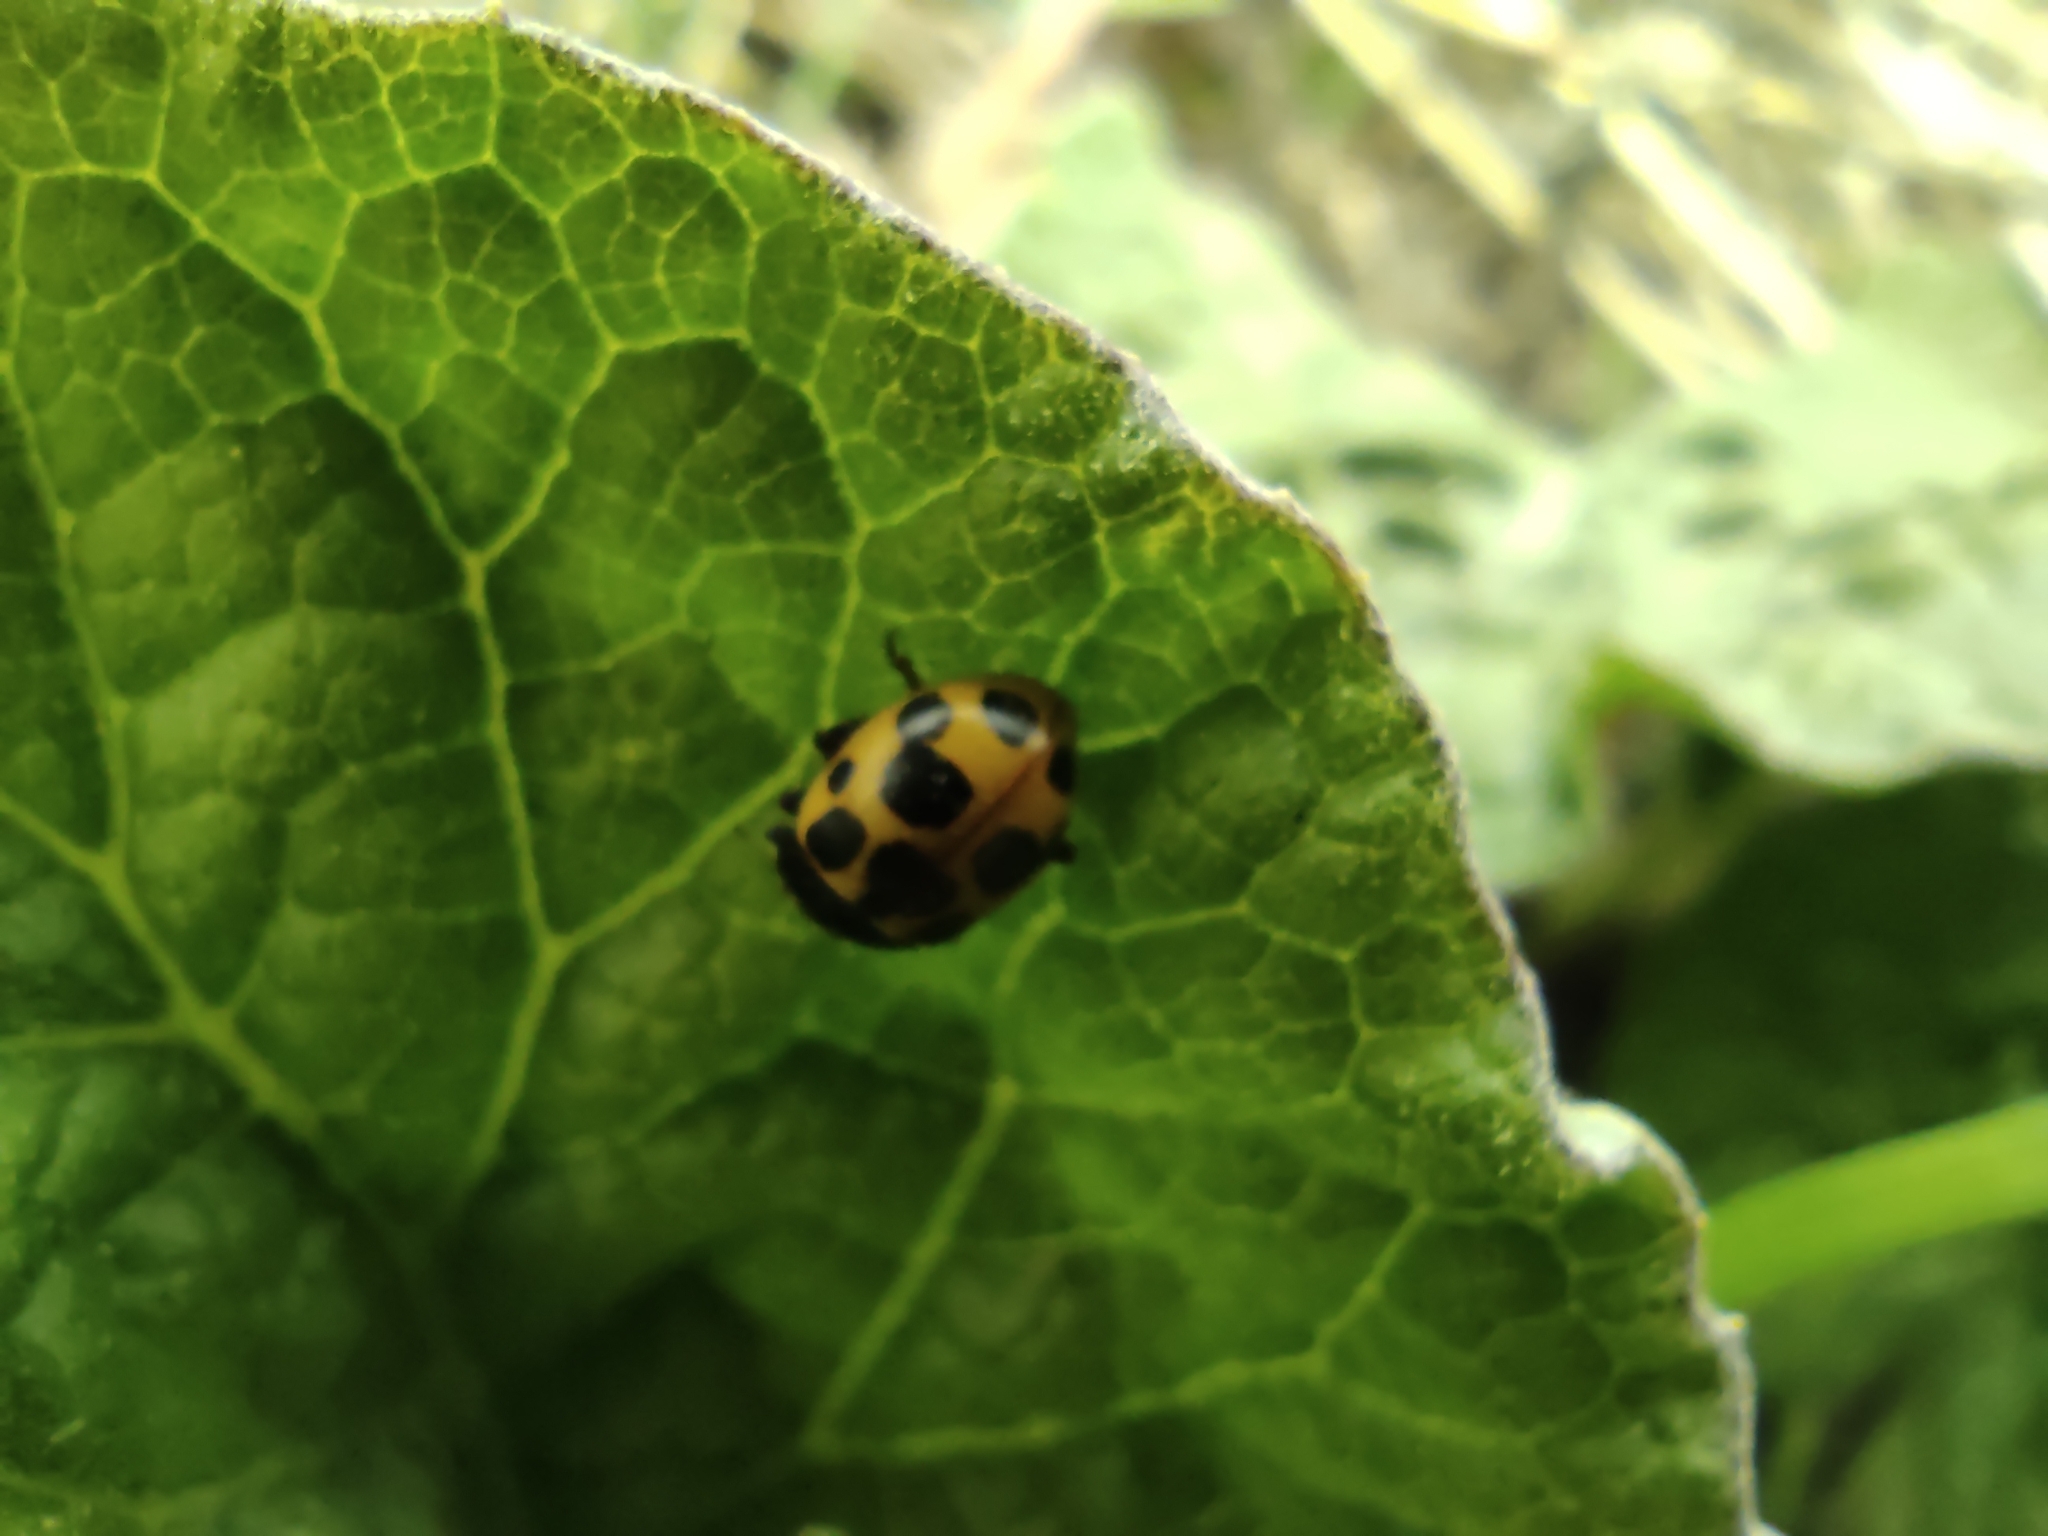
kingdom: Animalia
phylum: Arthropoda
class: Insecta
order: Coleoptera
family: Coccinellidae
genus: Ceratomegilla
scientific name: Ceratomegilla notata
